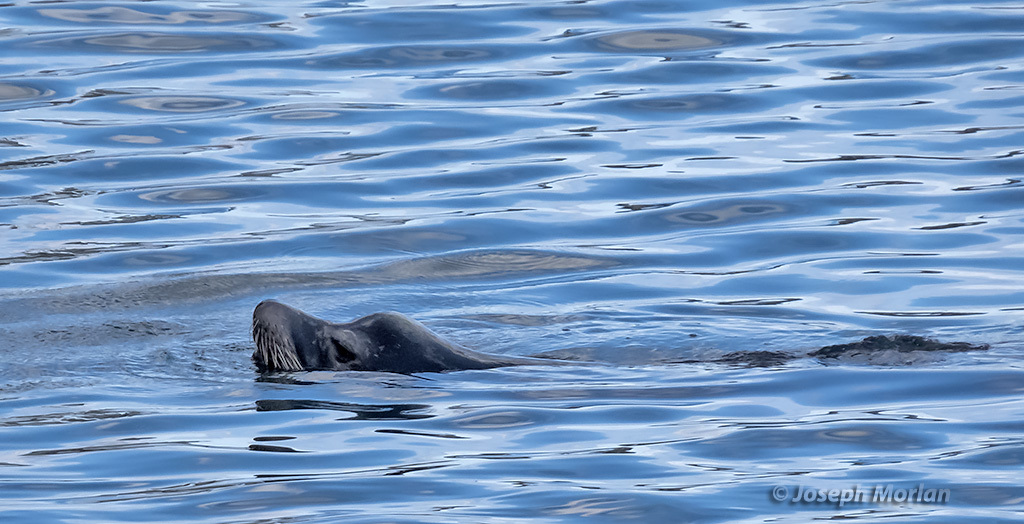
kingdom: Animalia
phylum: Chordata
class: Mammalia
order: Carnivora
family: Otariidae
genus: Zalophus
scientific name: Zalophus californianus
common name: California sea lion
